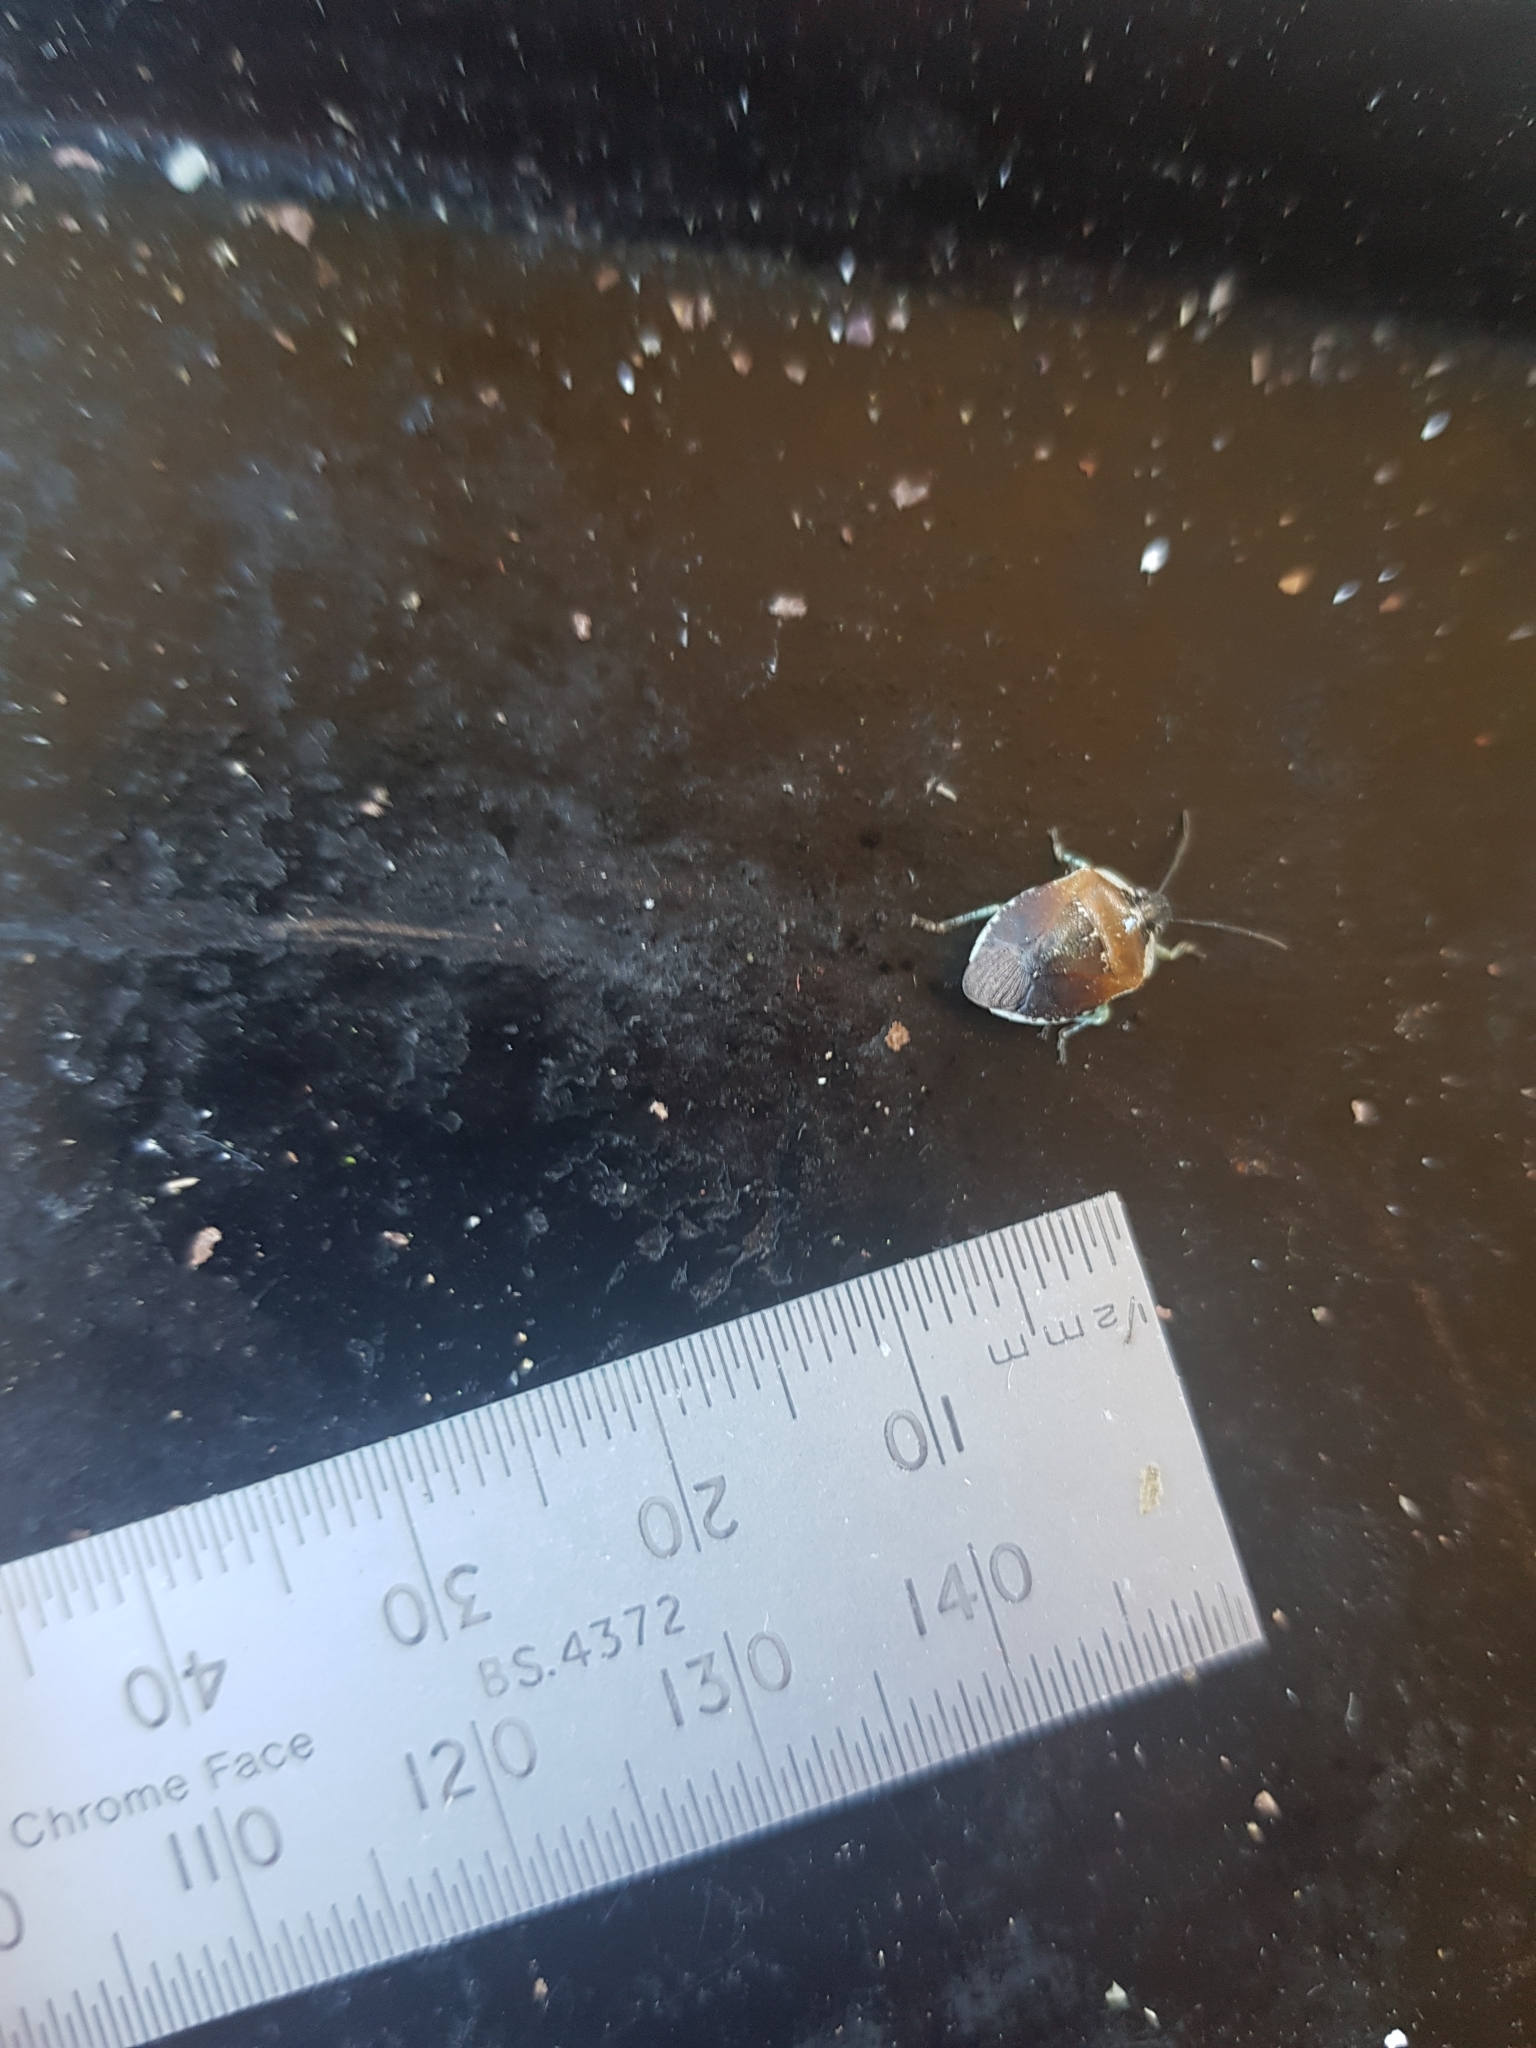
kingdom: Animalia
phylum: Arthropoda
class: Insecta
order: Hemiptera
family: Pentatomidae
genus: Monteithiella
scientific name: Monteithiella
